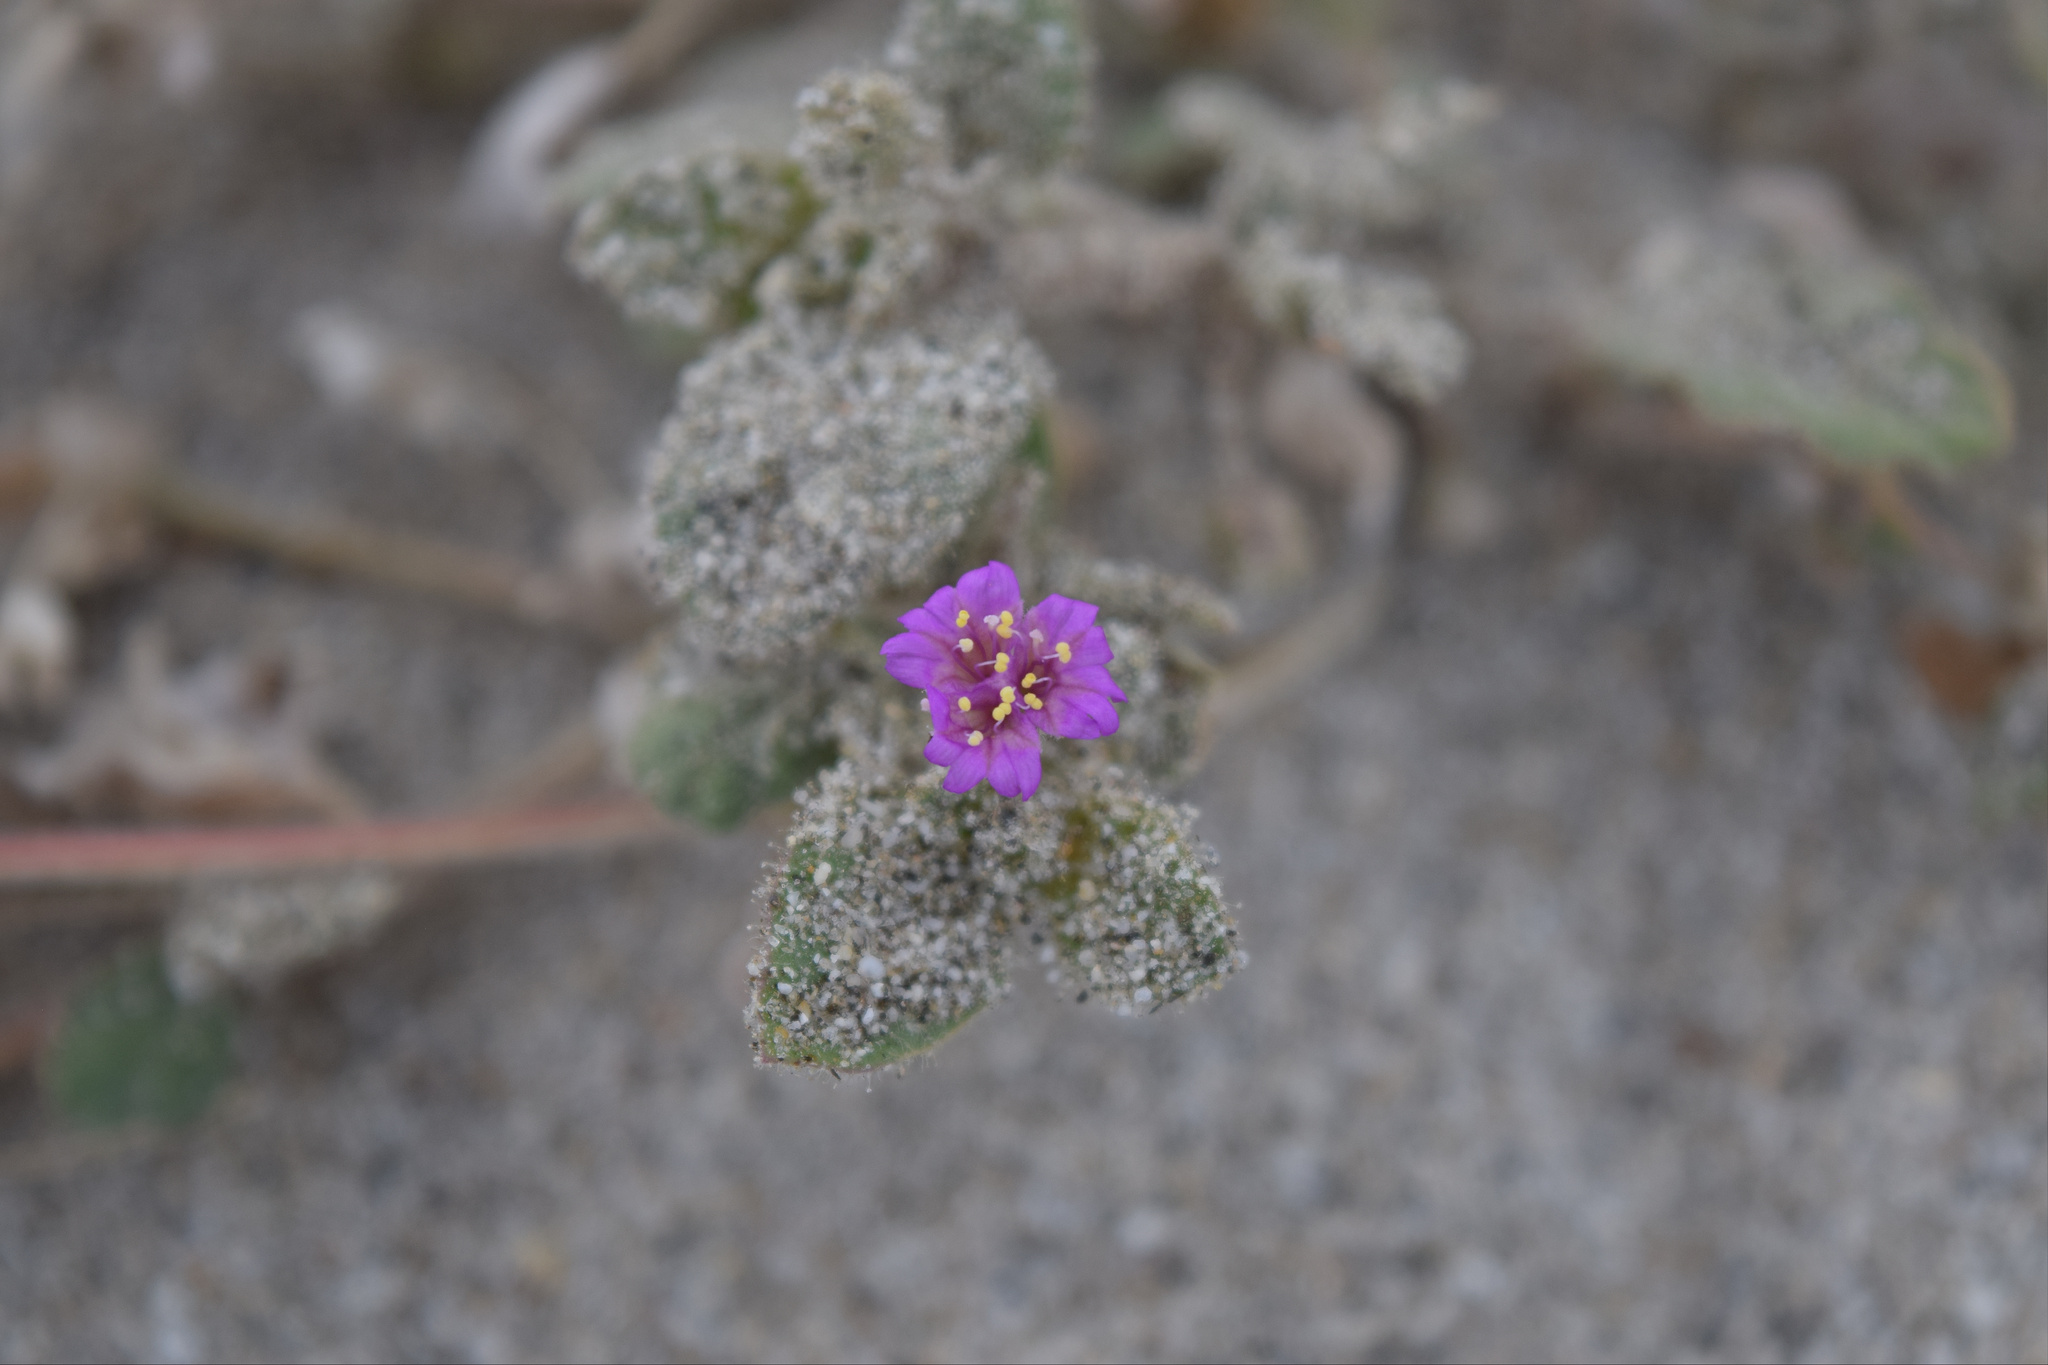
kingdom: Plantae
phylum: Tracheophyta
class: Magnoliopsida
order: Caryophyllales
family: Nyctaginaceae
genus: Allionia
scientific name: Allionia incarnata
